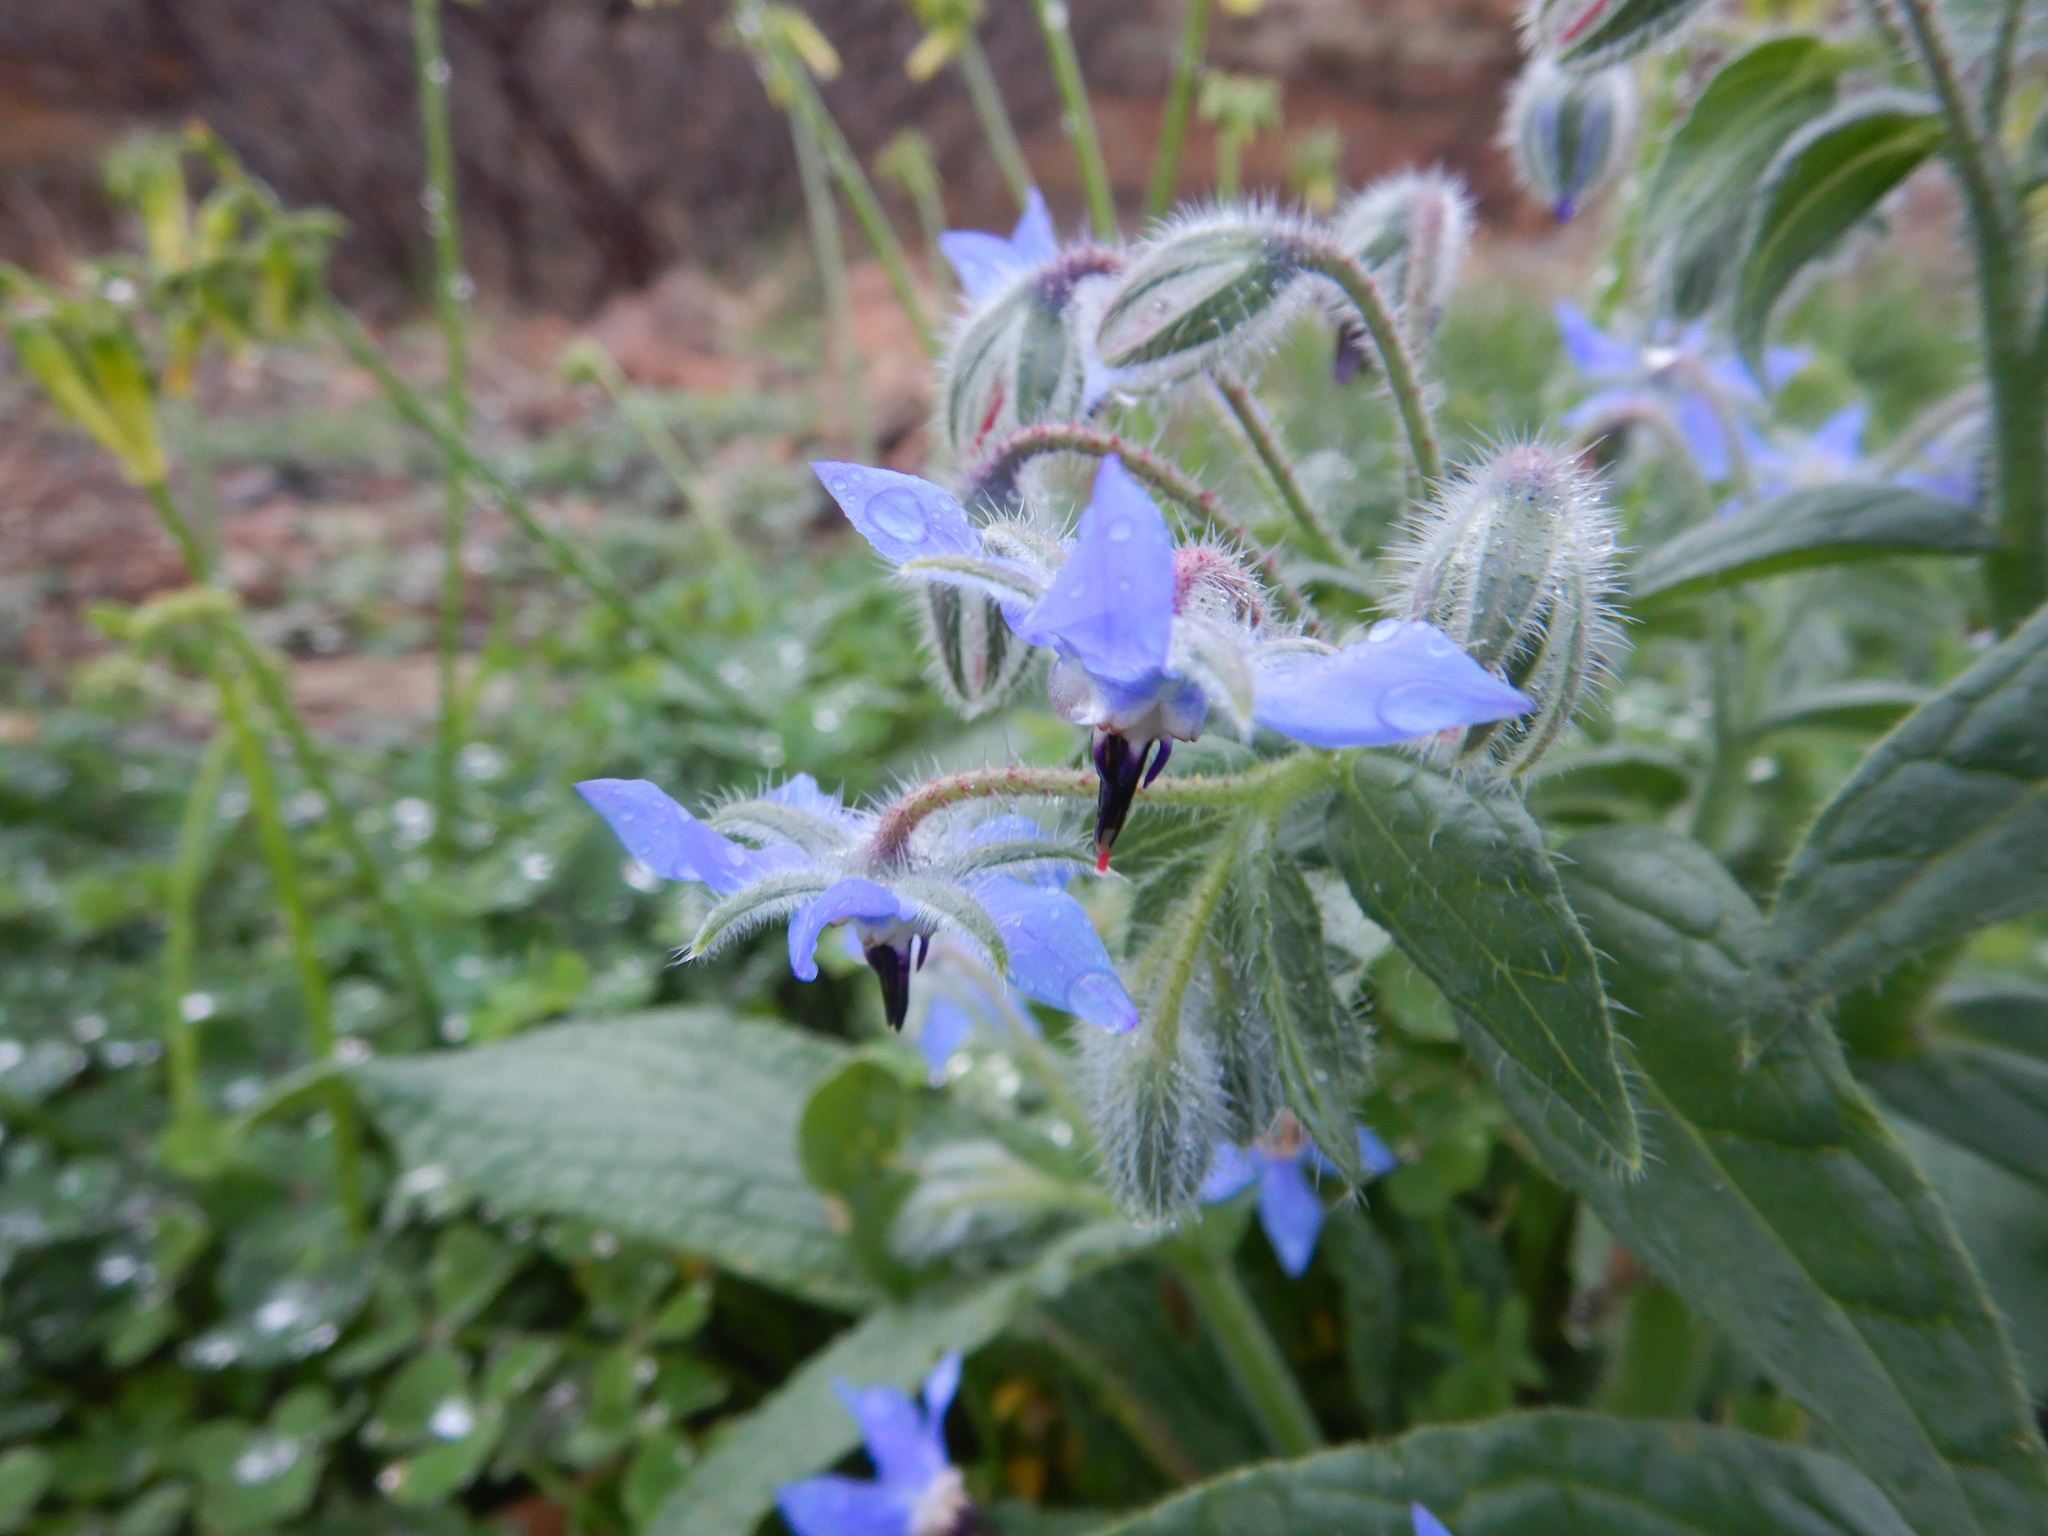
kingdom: Plantae
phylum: Tracheophyta
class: Magnoliopsida
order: Boraginales
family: Boraginaceae
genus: Borago
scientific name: Borago officinalis
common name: Borage
